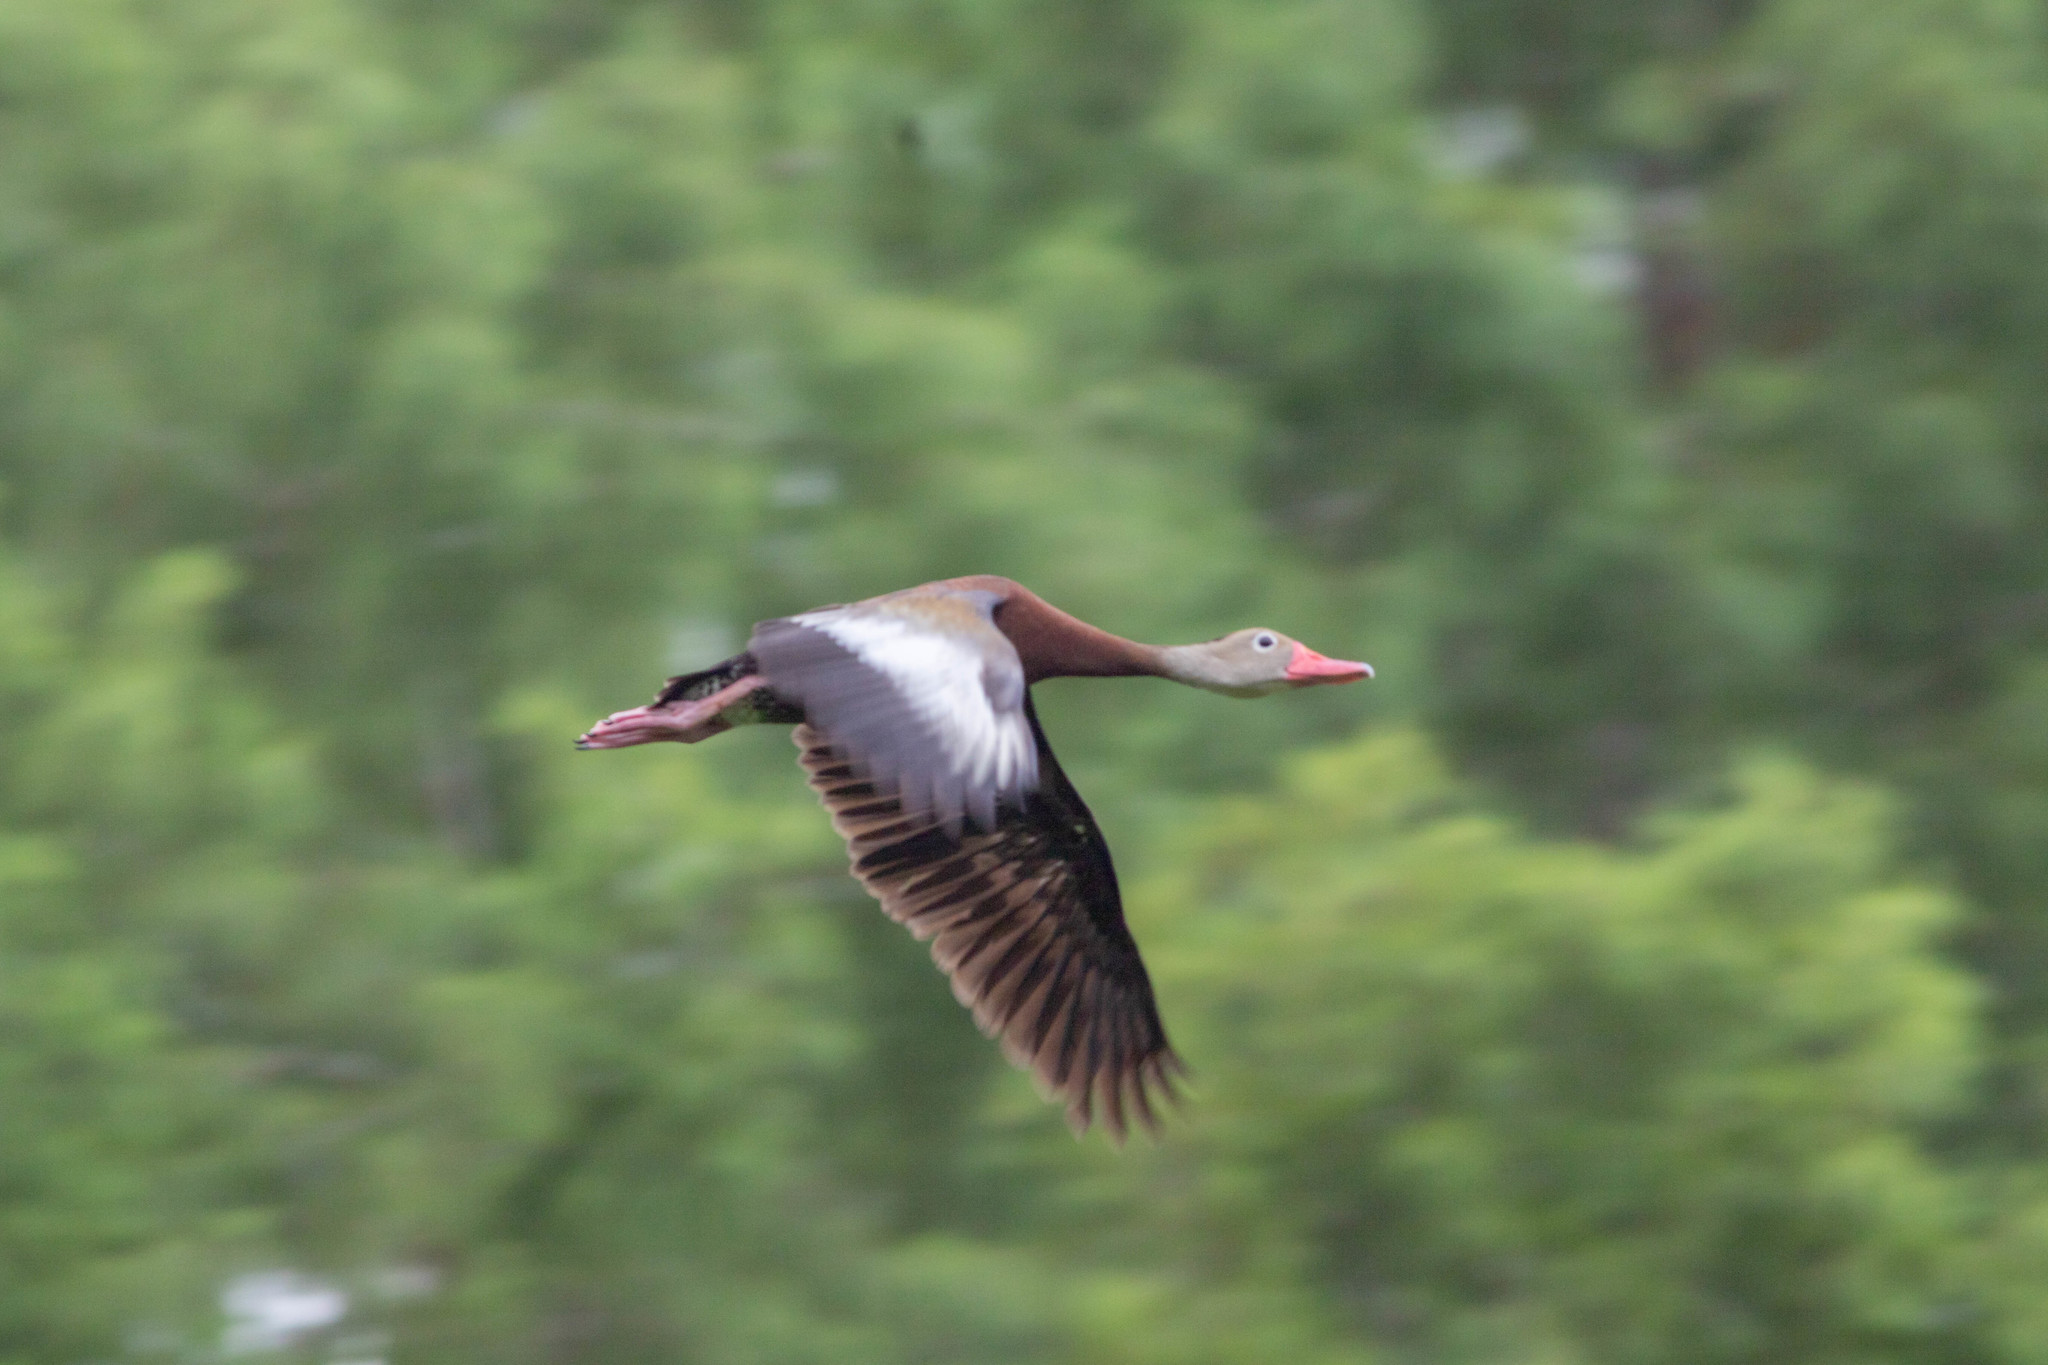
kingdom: Animalia
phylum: Chordata
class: Aves
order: Anseriformes
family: Anatidae
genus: Dendrocygna
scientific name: Dendrocygna autumnalis
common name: Black-bellied whistling duck
